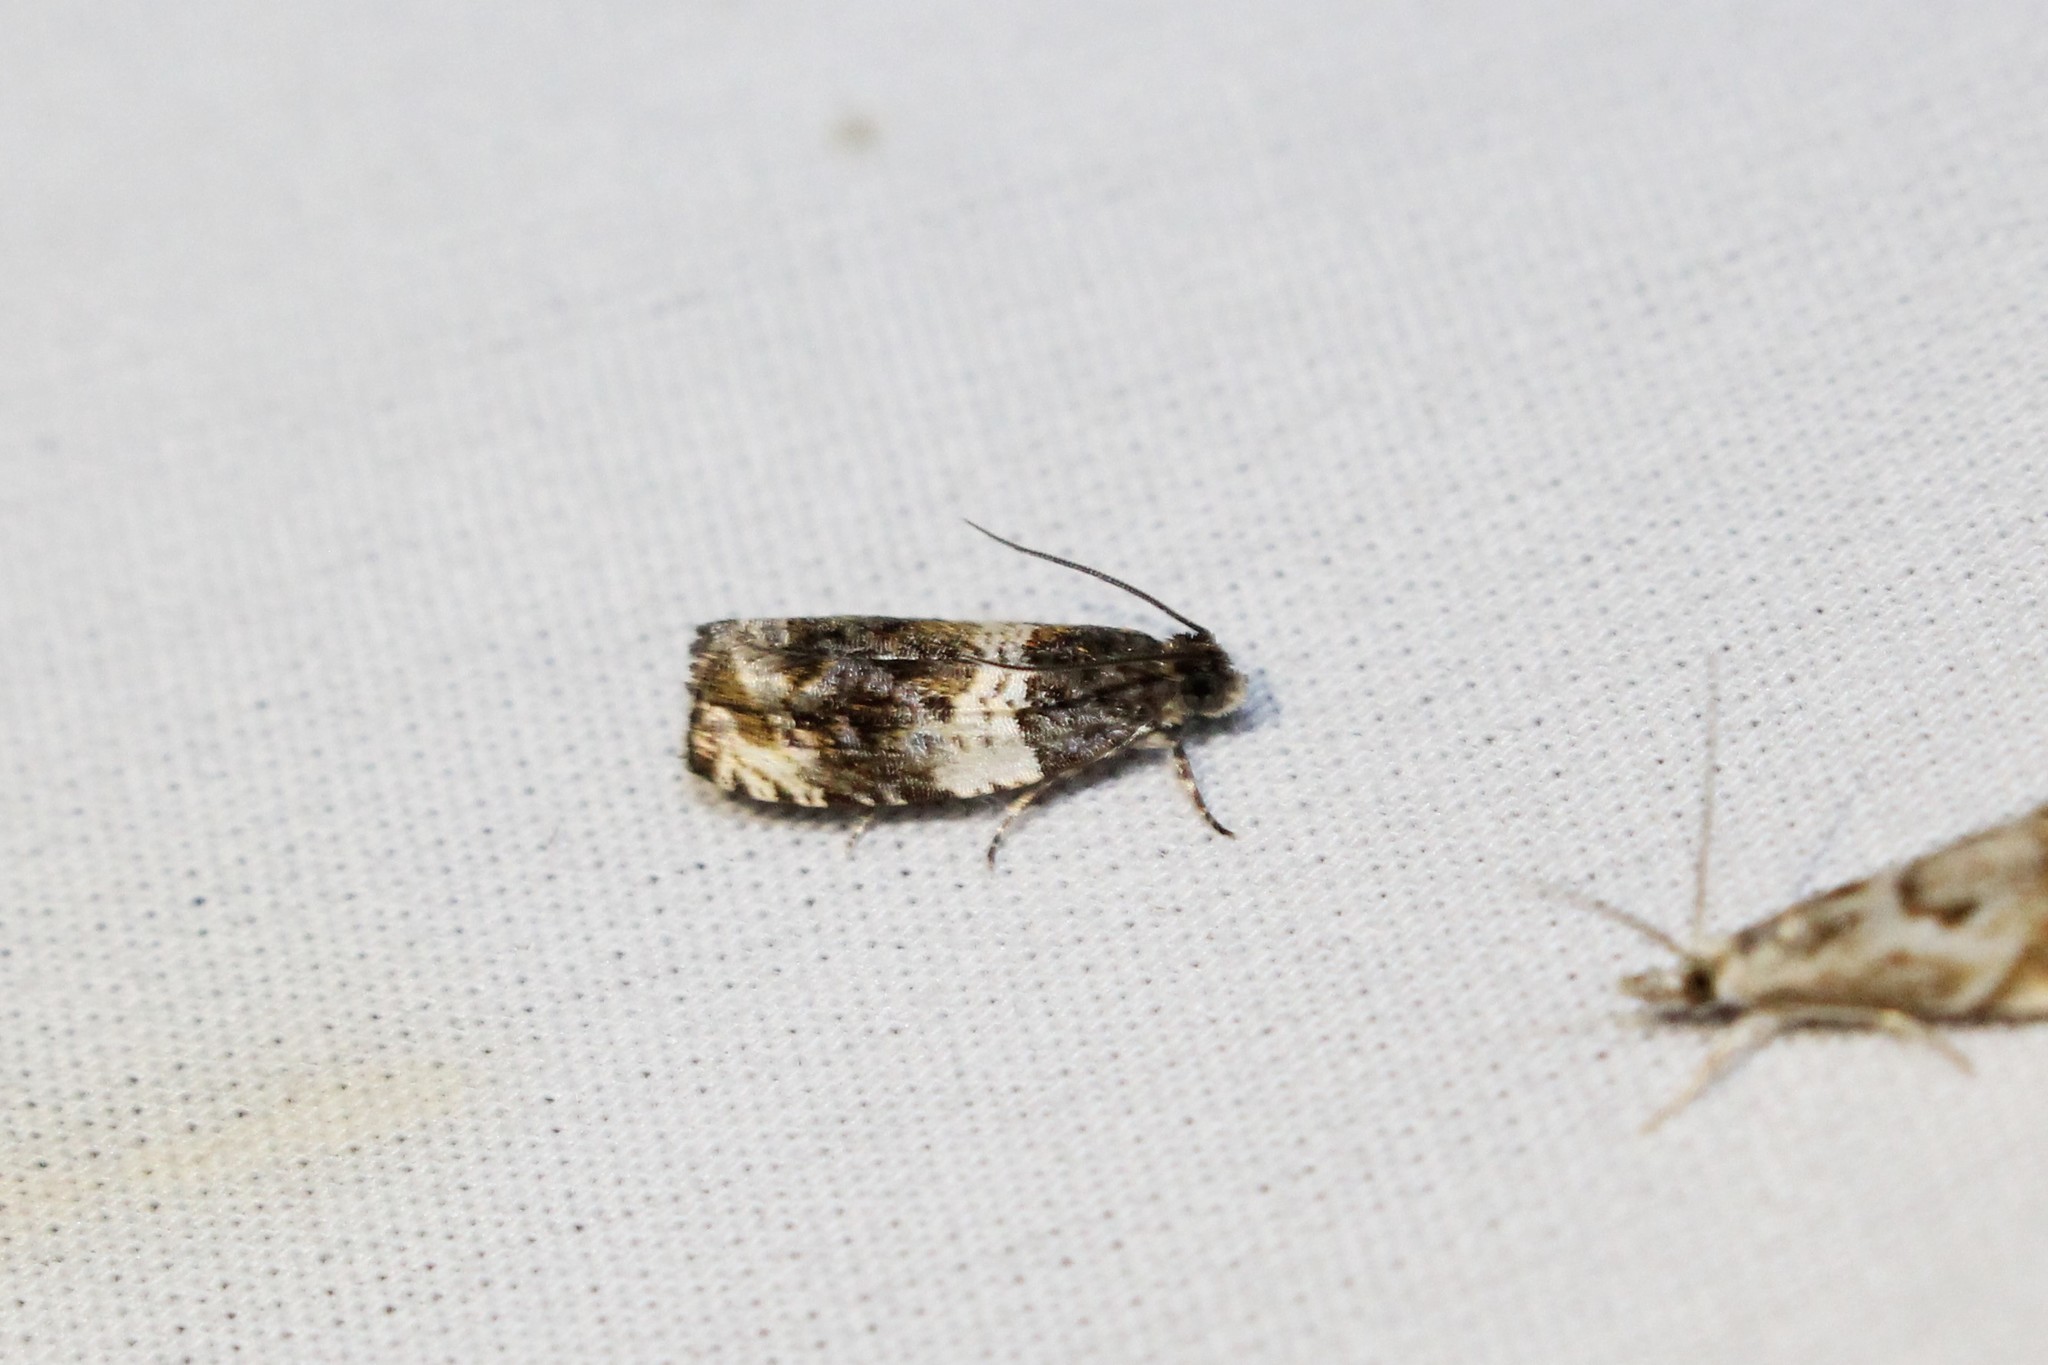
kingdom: Animalia
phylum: Arthropoda
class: Insecta
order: Lepidoptera
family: Tortricidae
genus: Olethreutes
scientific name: Olethreutes fasciatana
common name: Banded olethreutes moth
